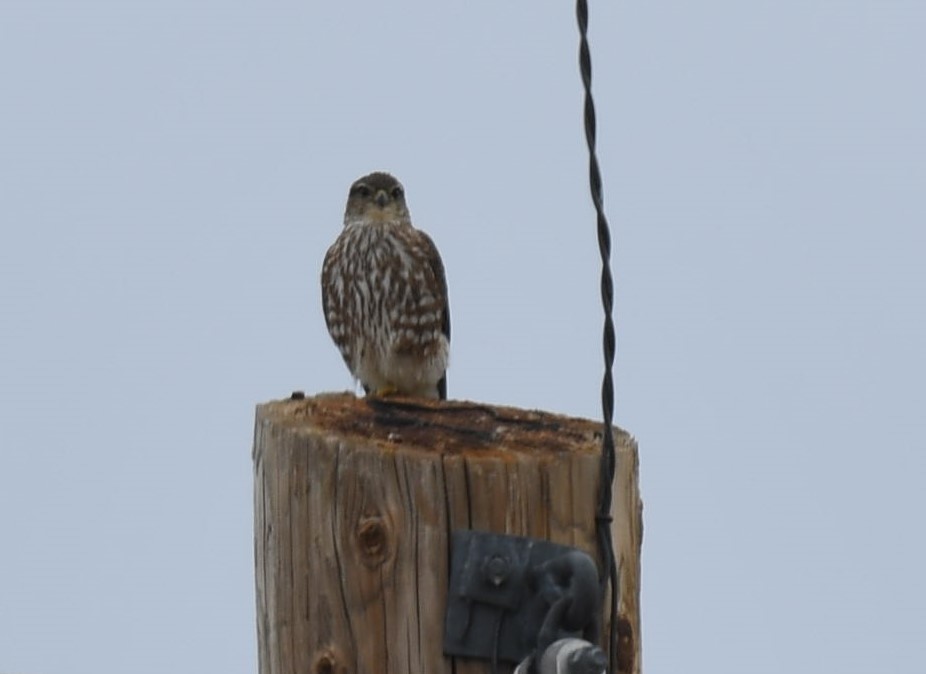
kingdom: Animalia
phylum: Chordata
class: Aves
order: Falconiformes
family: Falconidae
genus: Falco
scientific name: Falco columbarius
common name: Merlin
